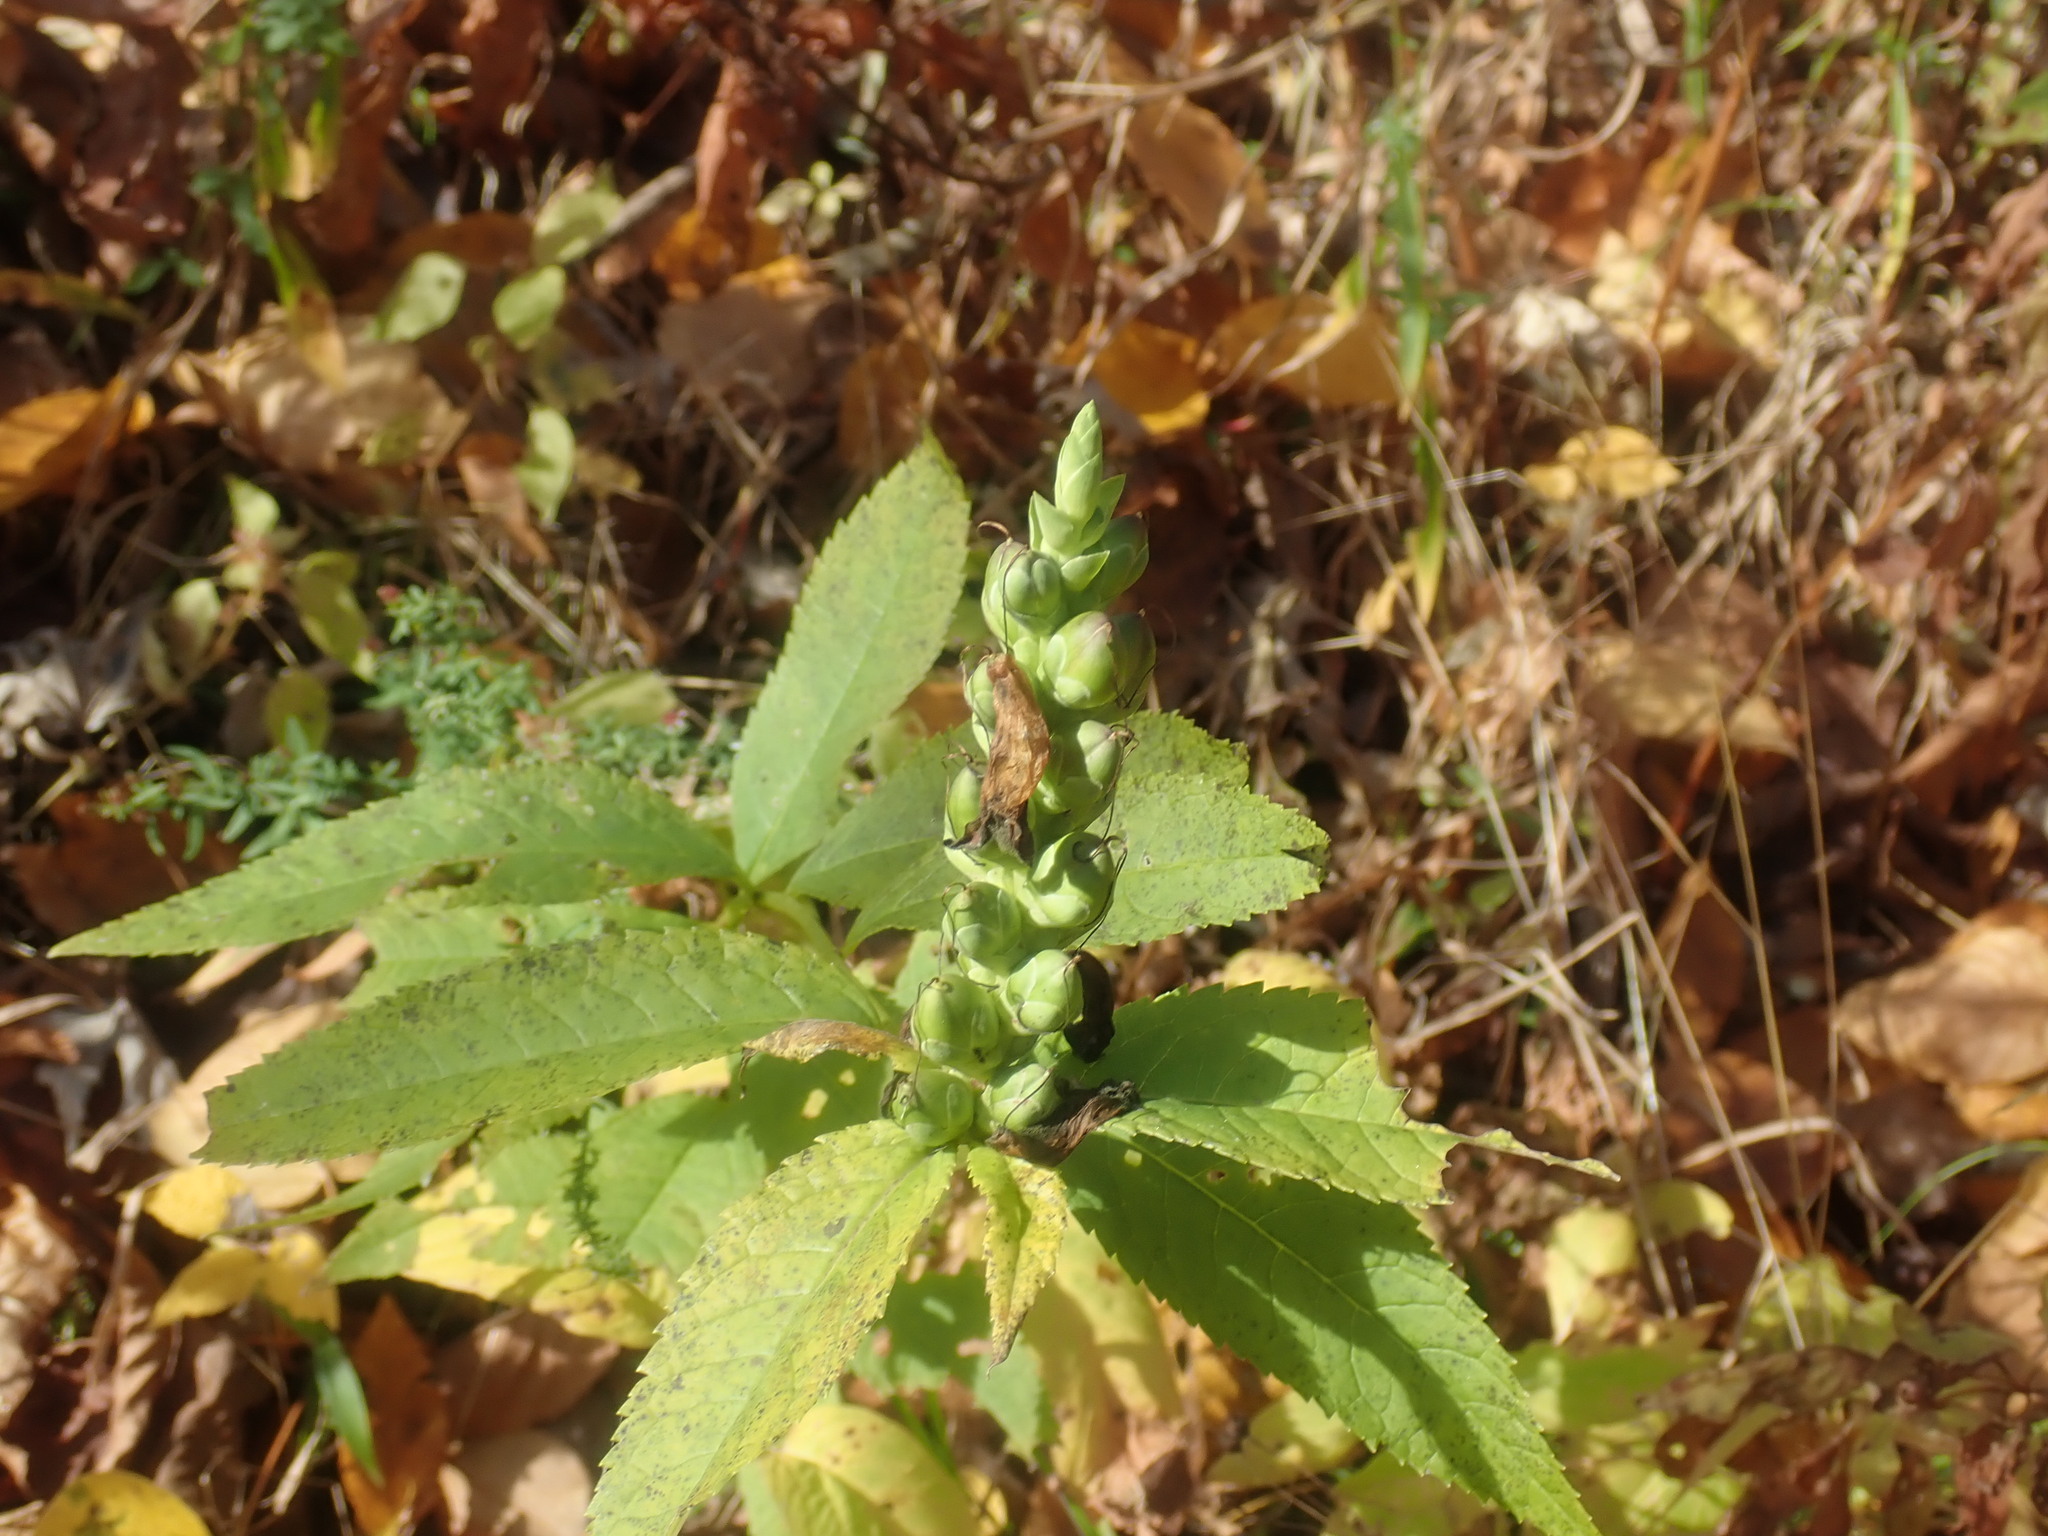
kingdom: Plantae
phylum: Tracheophyta
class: Magnoliopsida
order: Lamiales
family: Plantaginaceae
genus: Chelone
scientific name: Chelone glabra
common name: Snakehead
